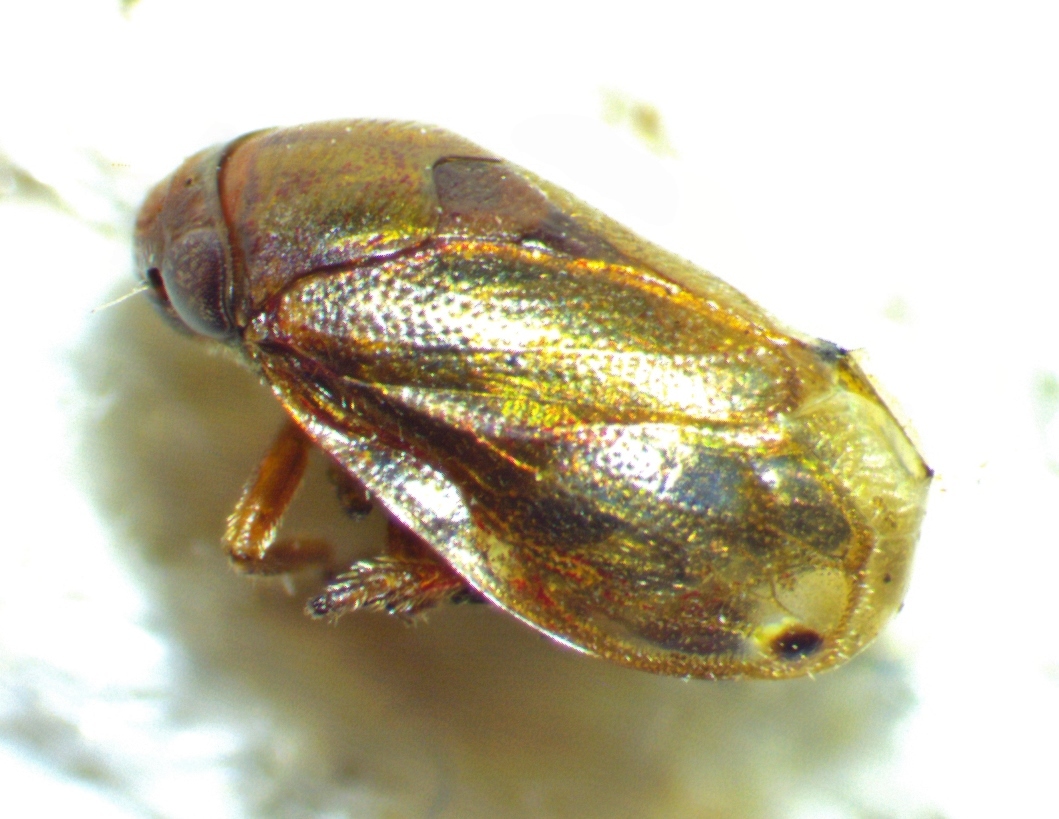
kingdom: Animalia
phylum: Arthropoda
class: Insecta
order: Hemiptera
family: Clastopteridae
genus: Clastoptera
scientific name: Clastoptera xanthocephala
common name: Sunflower spittlebug
